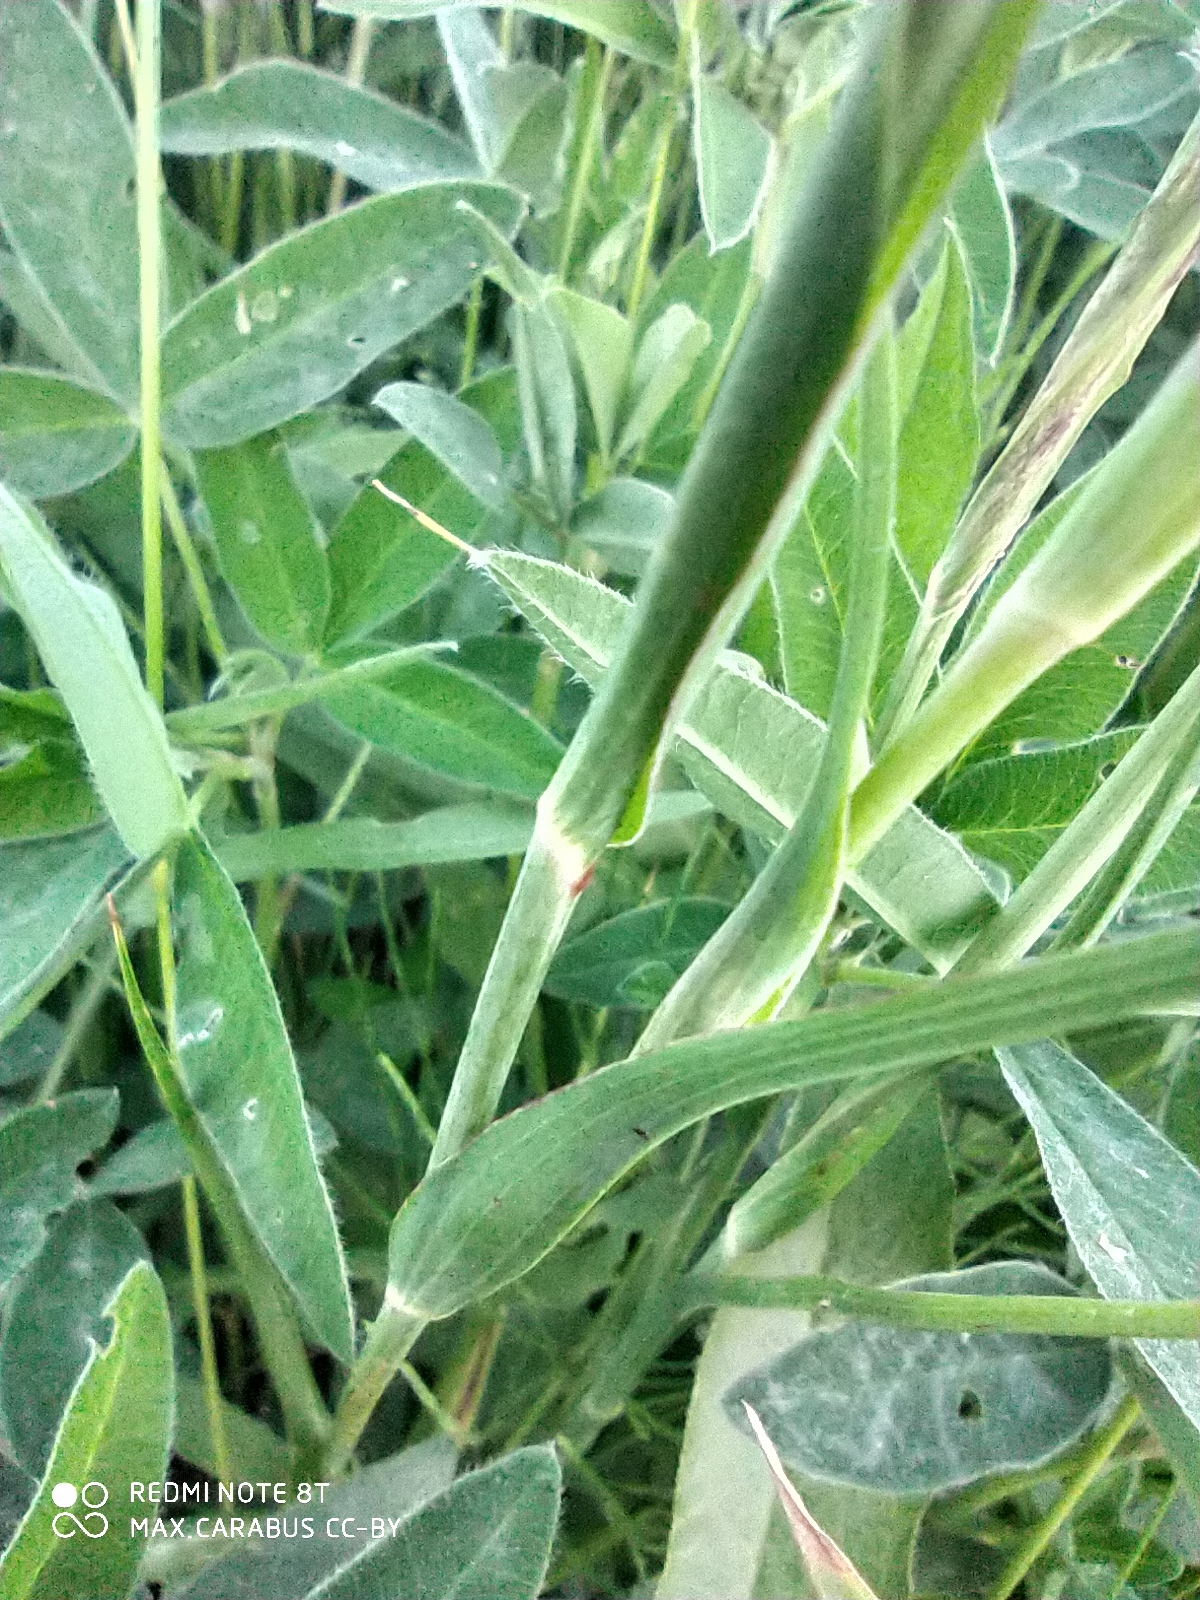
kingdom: Plantae
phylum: Tracheophyta
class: Magnoliopsida
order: Asterales
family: Asteraceae
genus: Tragopogon
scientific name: Tragopogon dubius
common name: Yellow salsify
